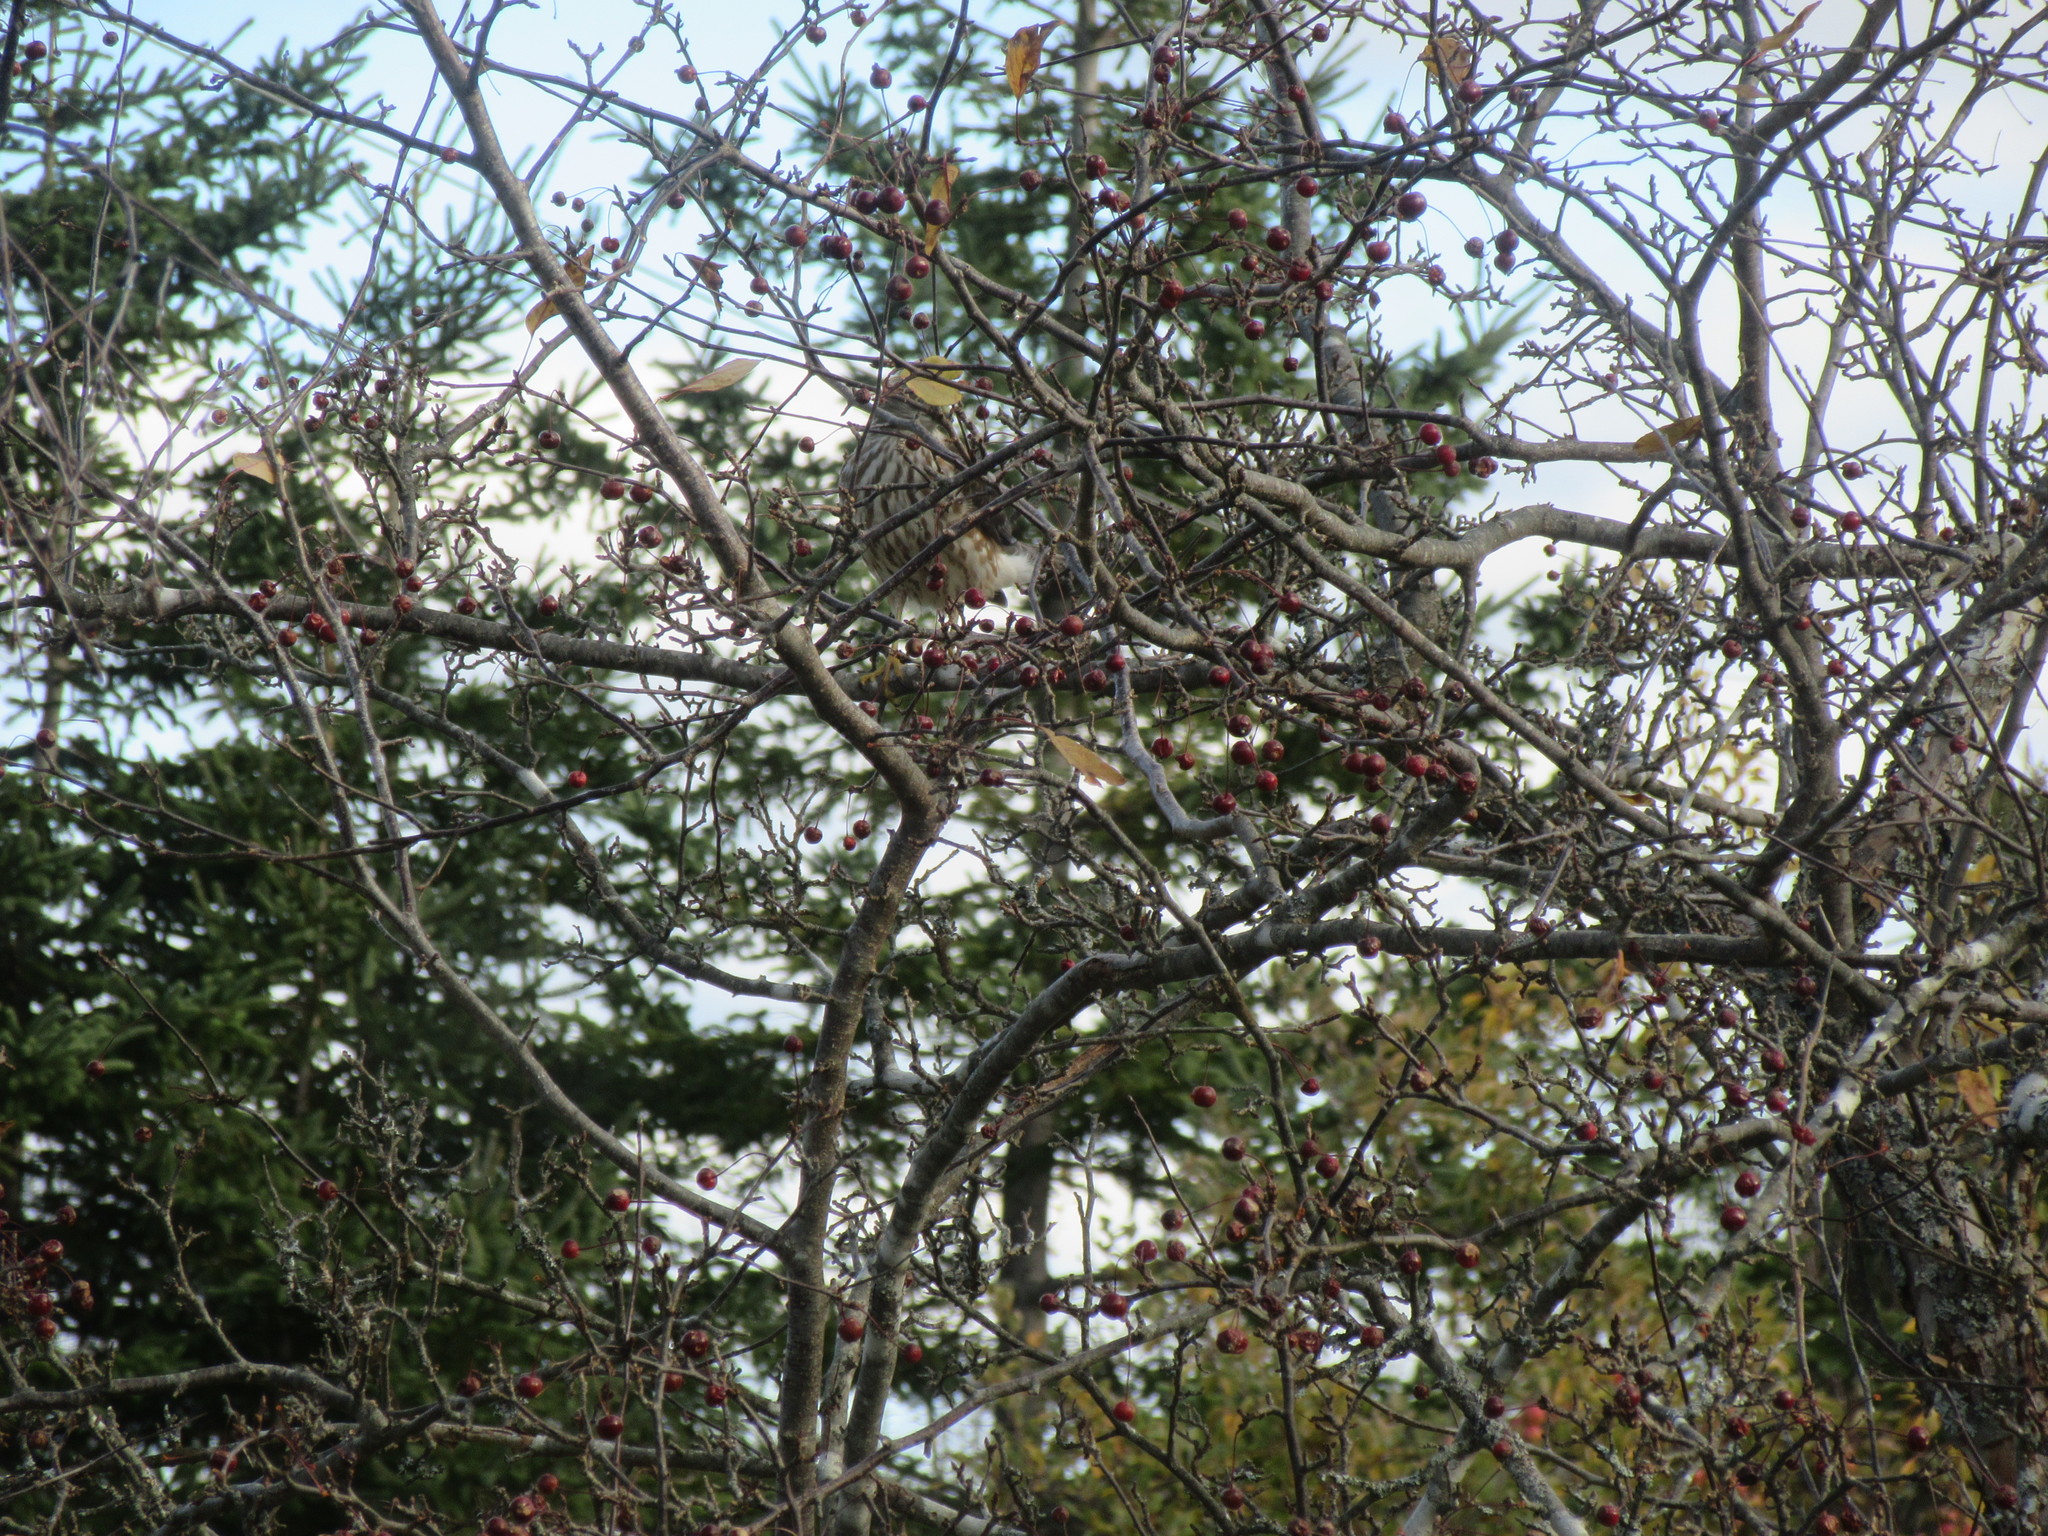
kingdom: Animalia
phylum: Chordata
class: Aves
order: Accipitriformes
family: Accipitridae
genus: Accipiter
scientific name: Accipiter striatus
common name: Sharp-shinned hawk
